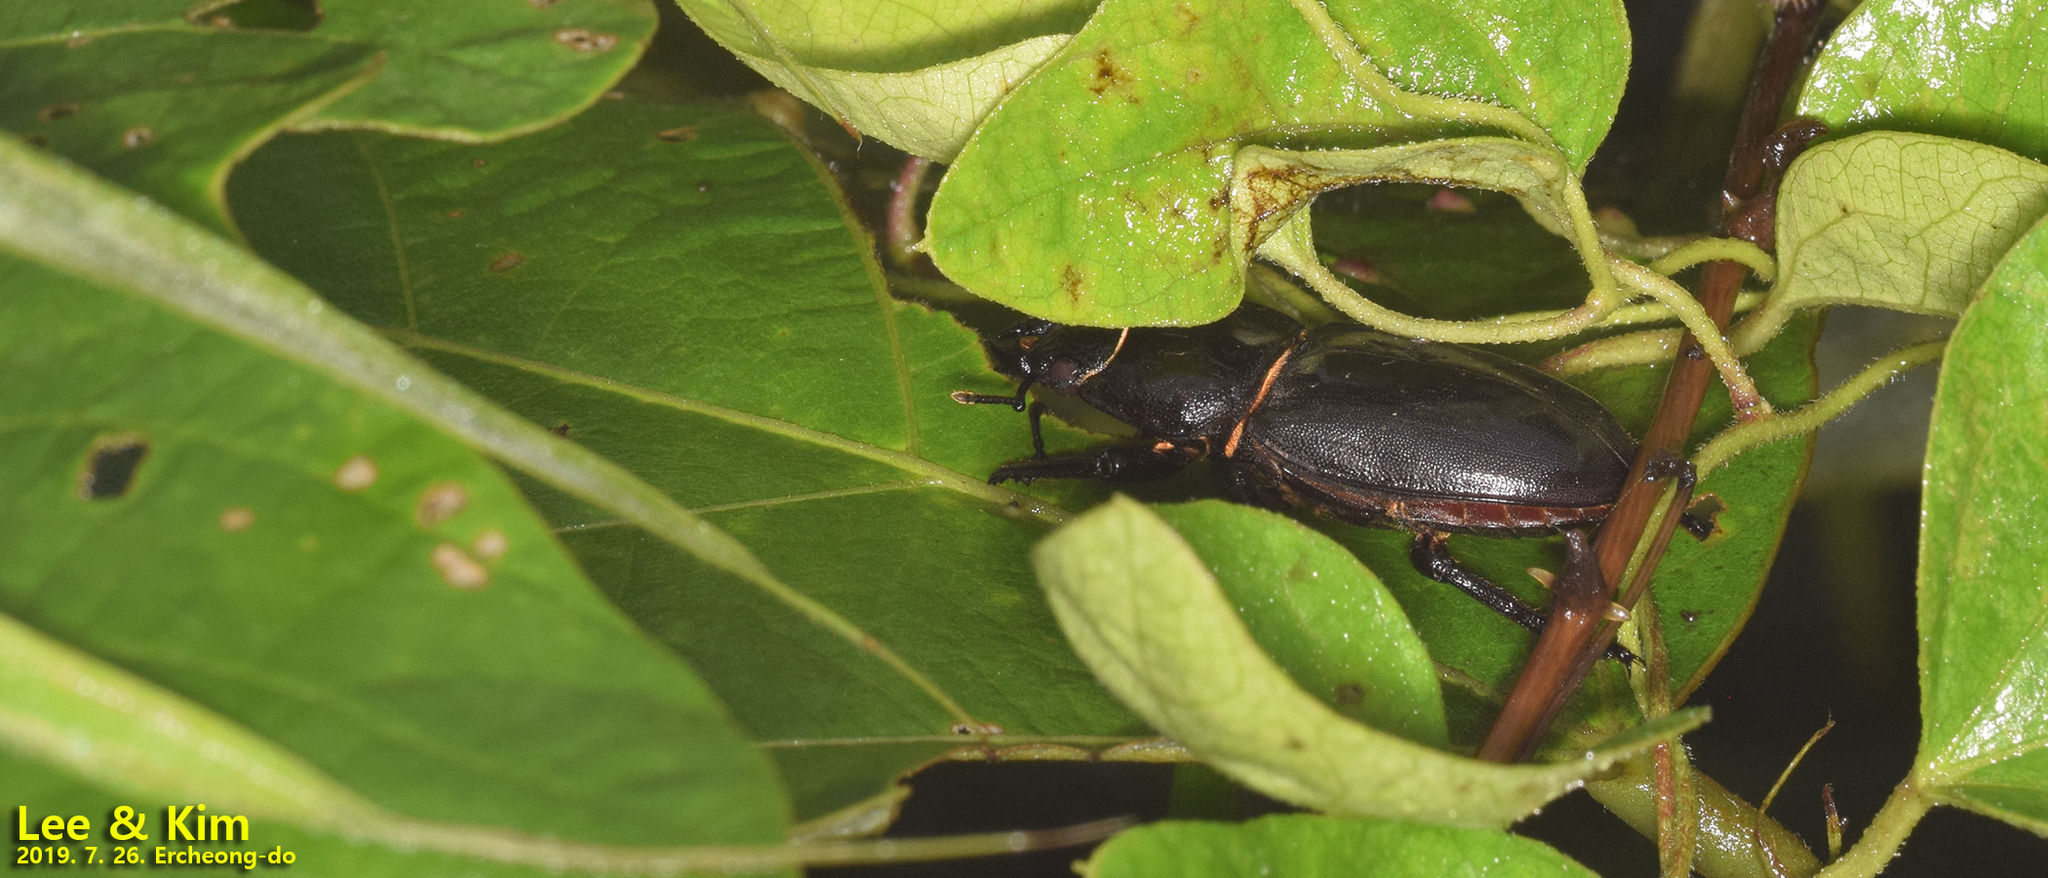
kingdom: Animalia
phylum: Arthropoda
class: Insecta
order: Coleoptera
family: Lucanidae
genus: Serrognathus
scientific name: Serrognathus titanus
